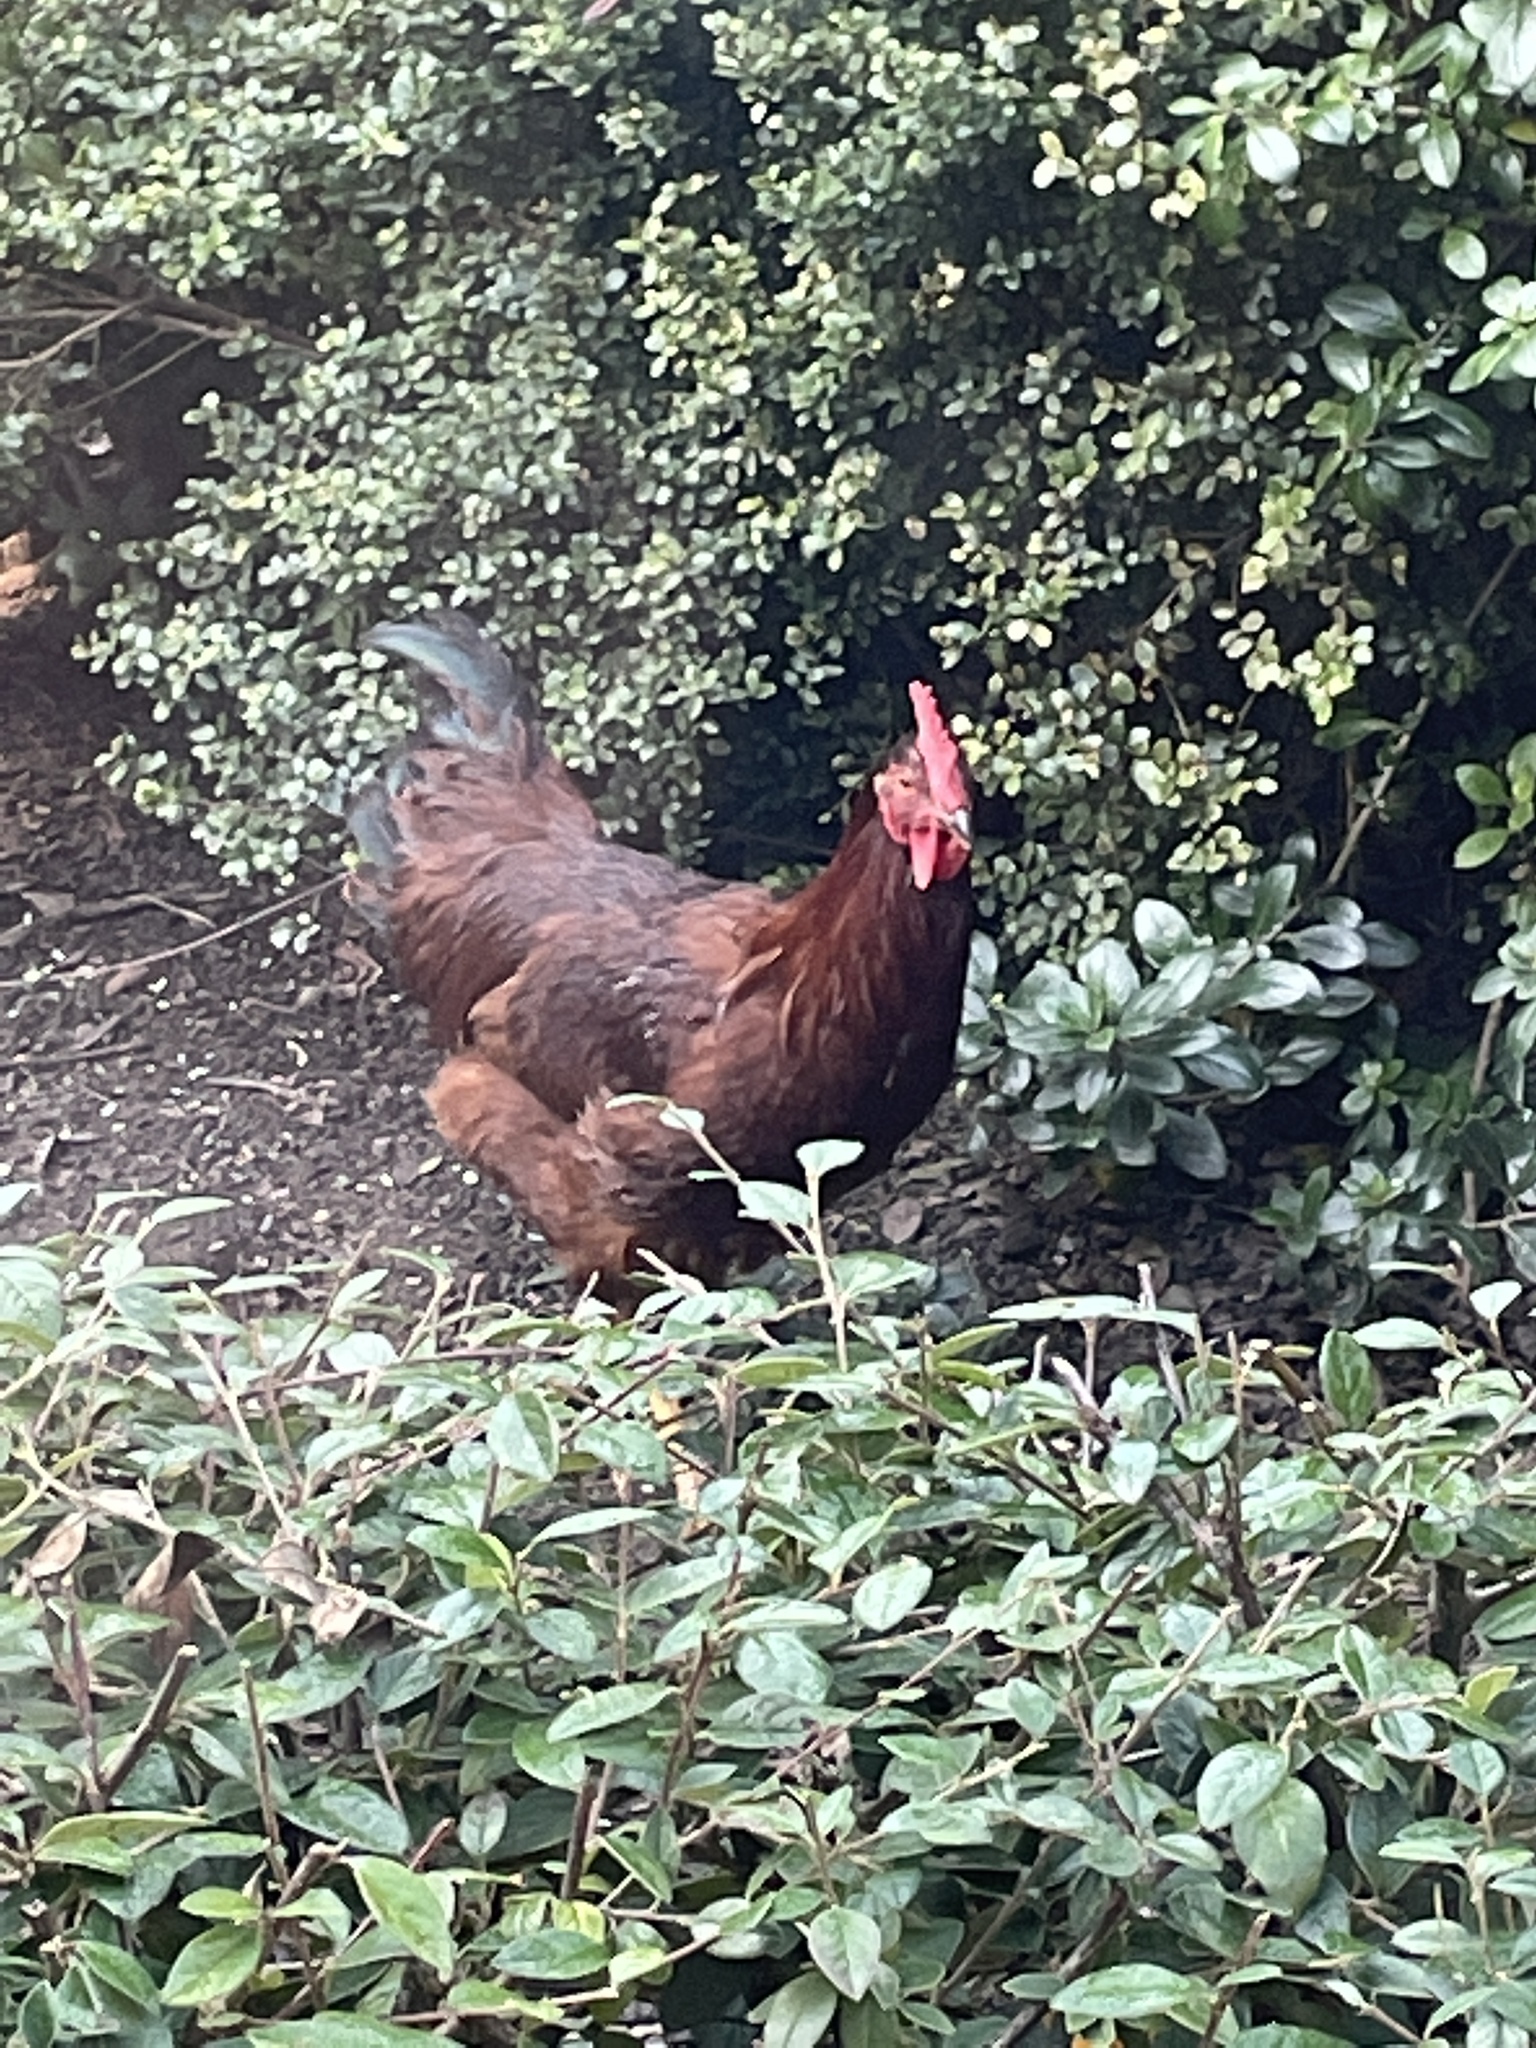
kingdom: Animalia
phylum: Chordata
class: Aves
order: Galliformes
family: Phasianidae
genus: Gallus
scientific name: Gallus gallus
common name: Red junglefowl
